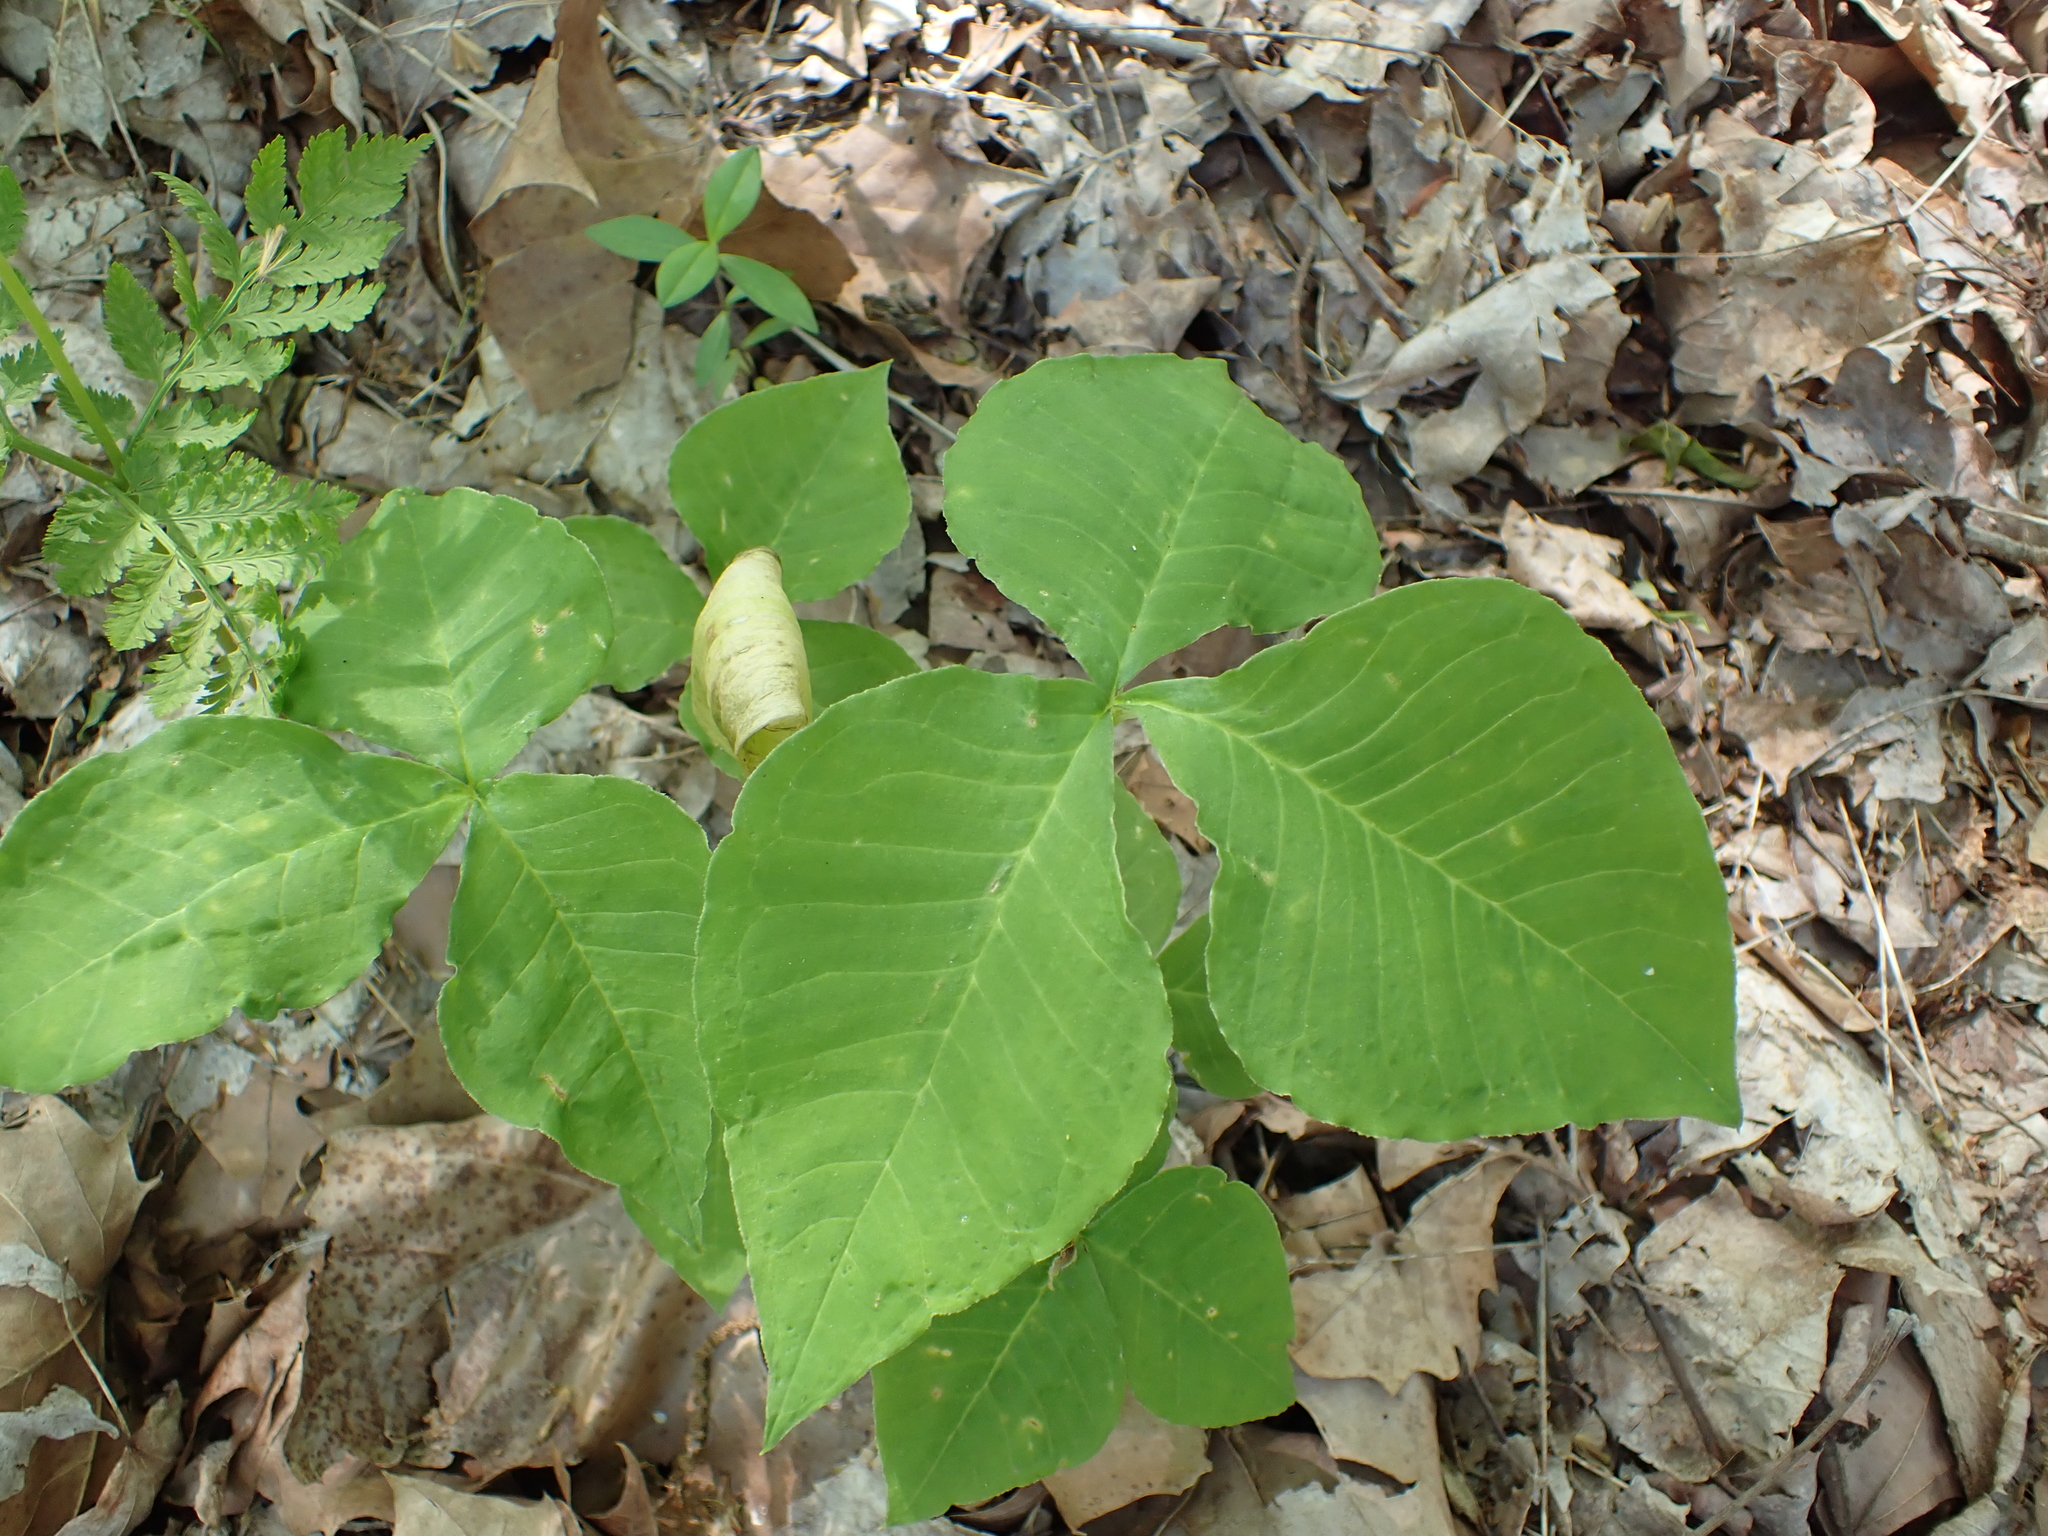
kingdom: Plantae
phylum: Tracheophyta
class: Liliopsida
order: Alismatales
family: Araceae
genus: Arisaema
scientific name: Arisaema triphyllum
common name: Jack-in-the-pulpit
